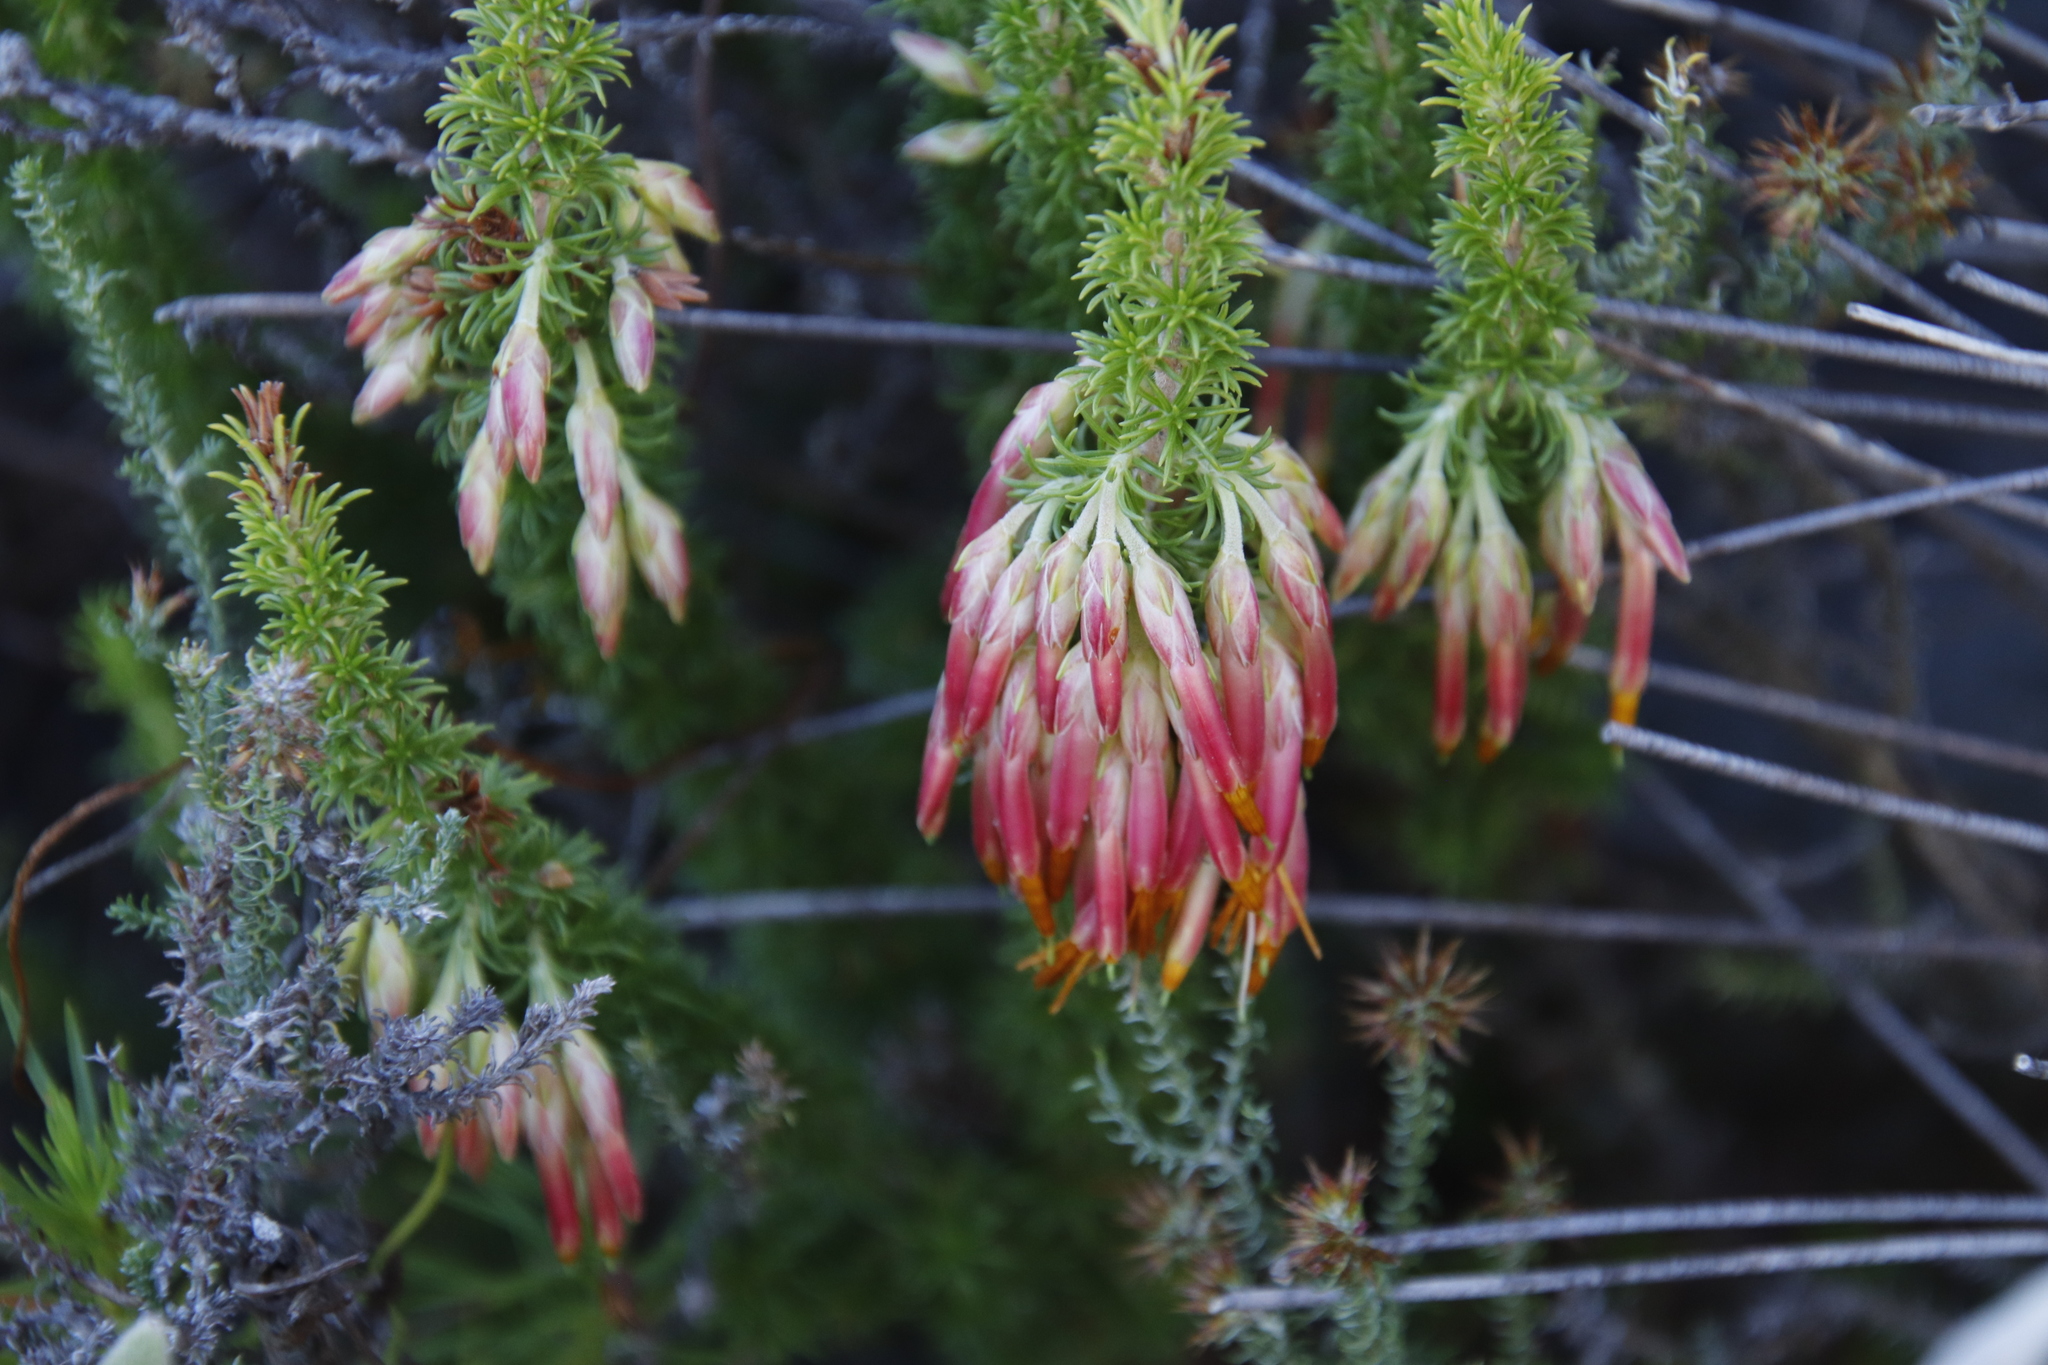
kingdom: Plantae
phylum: Tracheophyta
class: Magnoliopsida
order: Ericales
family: Ericaceae
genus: Erica
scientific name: Erica coccinea
